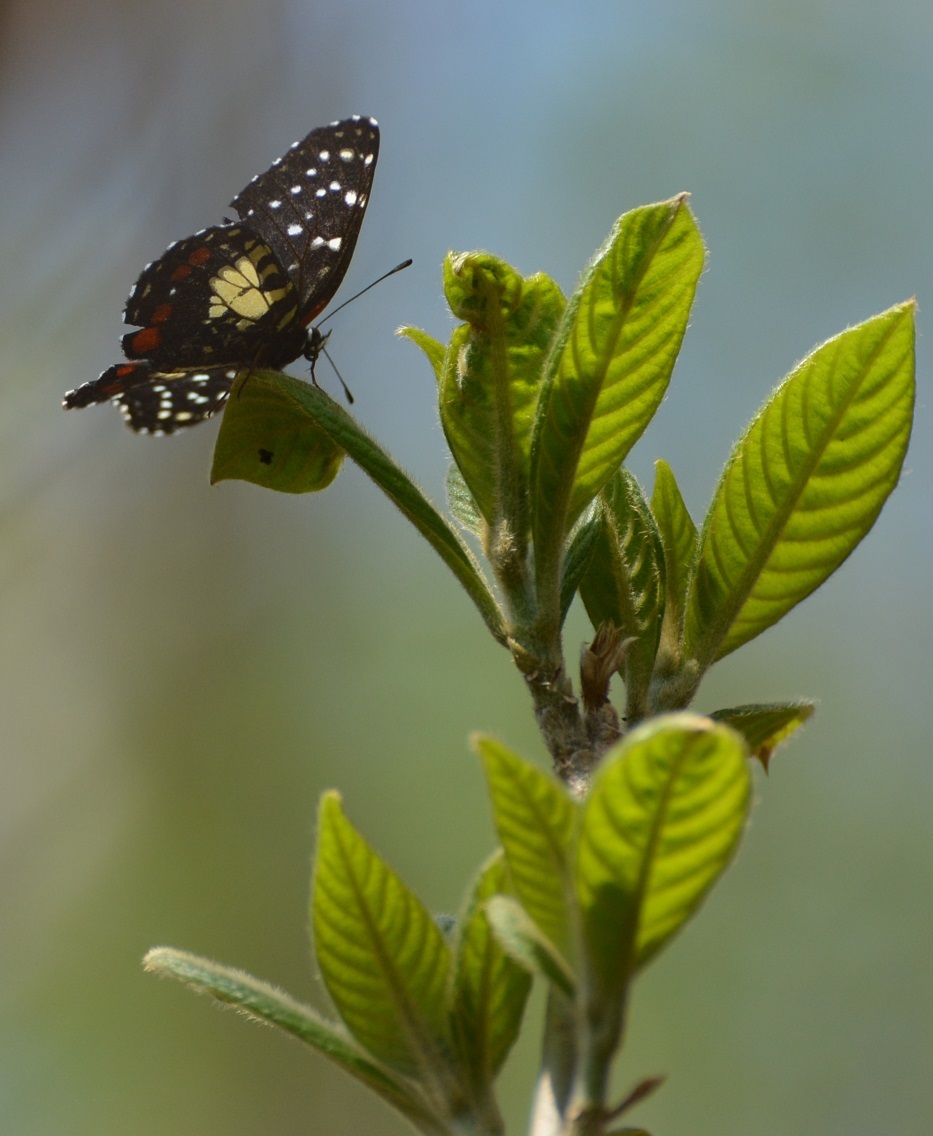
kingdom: Animalia
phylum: Arthropoda
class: Insecta
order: Lepidoptera
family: Nymphalidae
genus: Chlosyne
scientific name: Chlosyne erodyle
